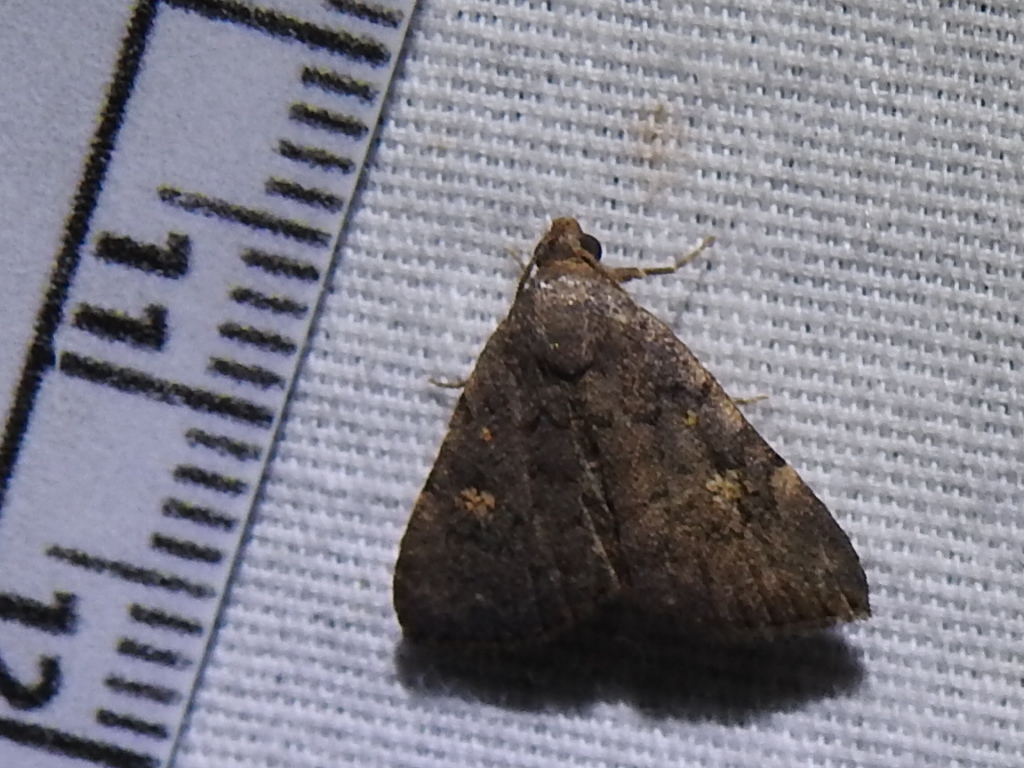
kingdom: Animalia
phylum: Arthropoda
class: Insecta
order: Lepidoptera
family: Erebidae
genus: Idia
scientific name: Idia aemula
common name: Common idia moth
